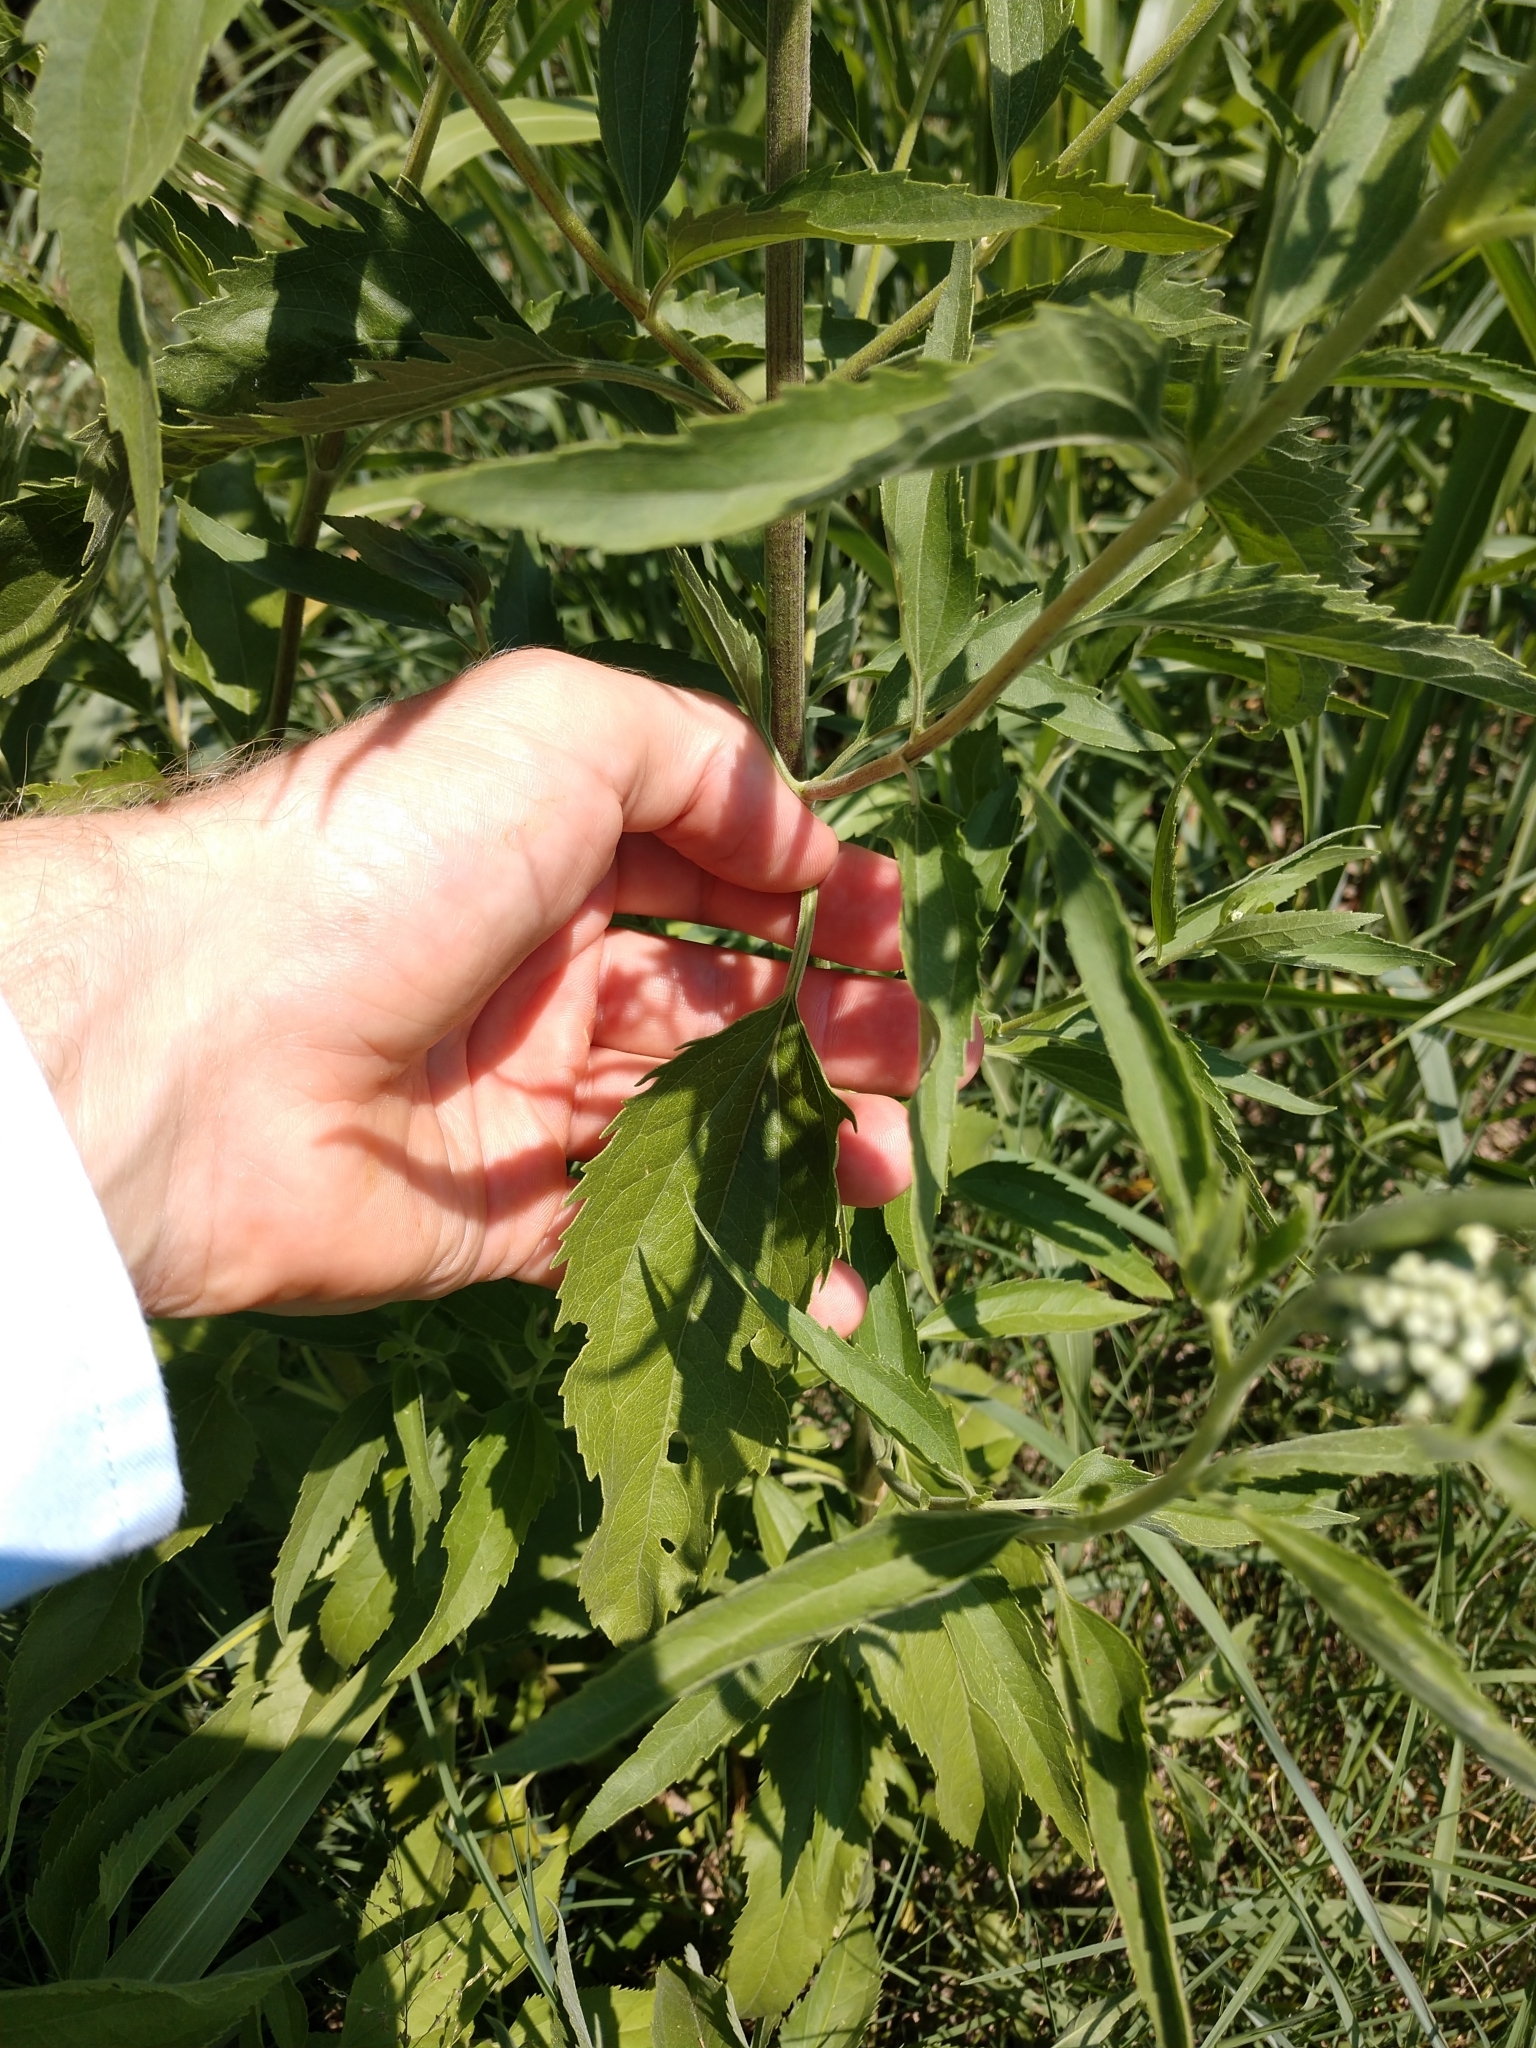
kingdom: Plantae
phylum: Tracheophyta
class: Magnoliopsida
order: Asterales
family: Asteraceae
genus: Eupatorium
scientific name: Eupatorium serotinum
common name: Late boneset
